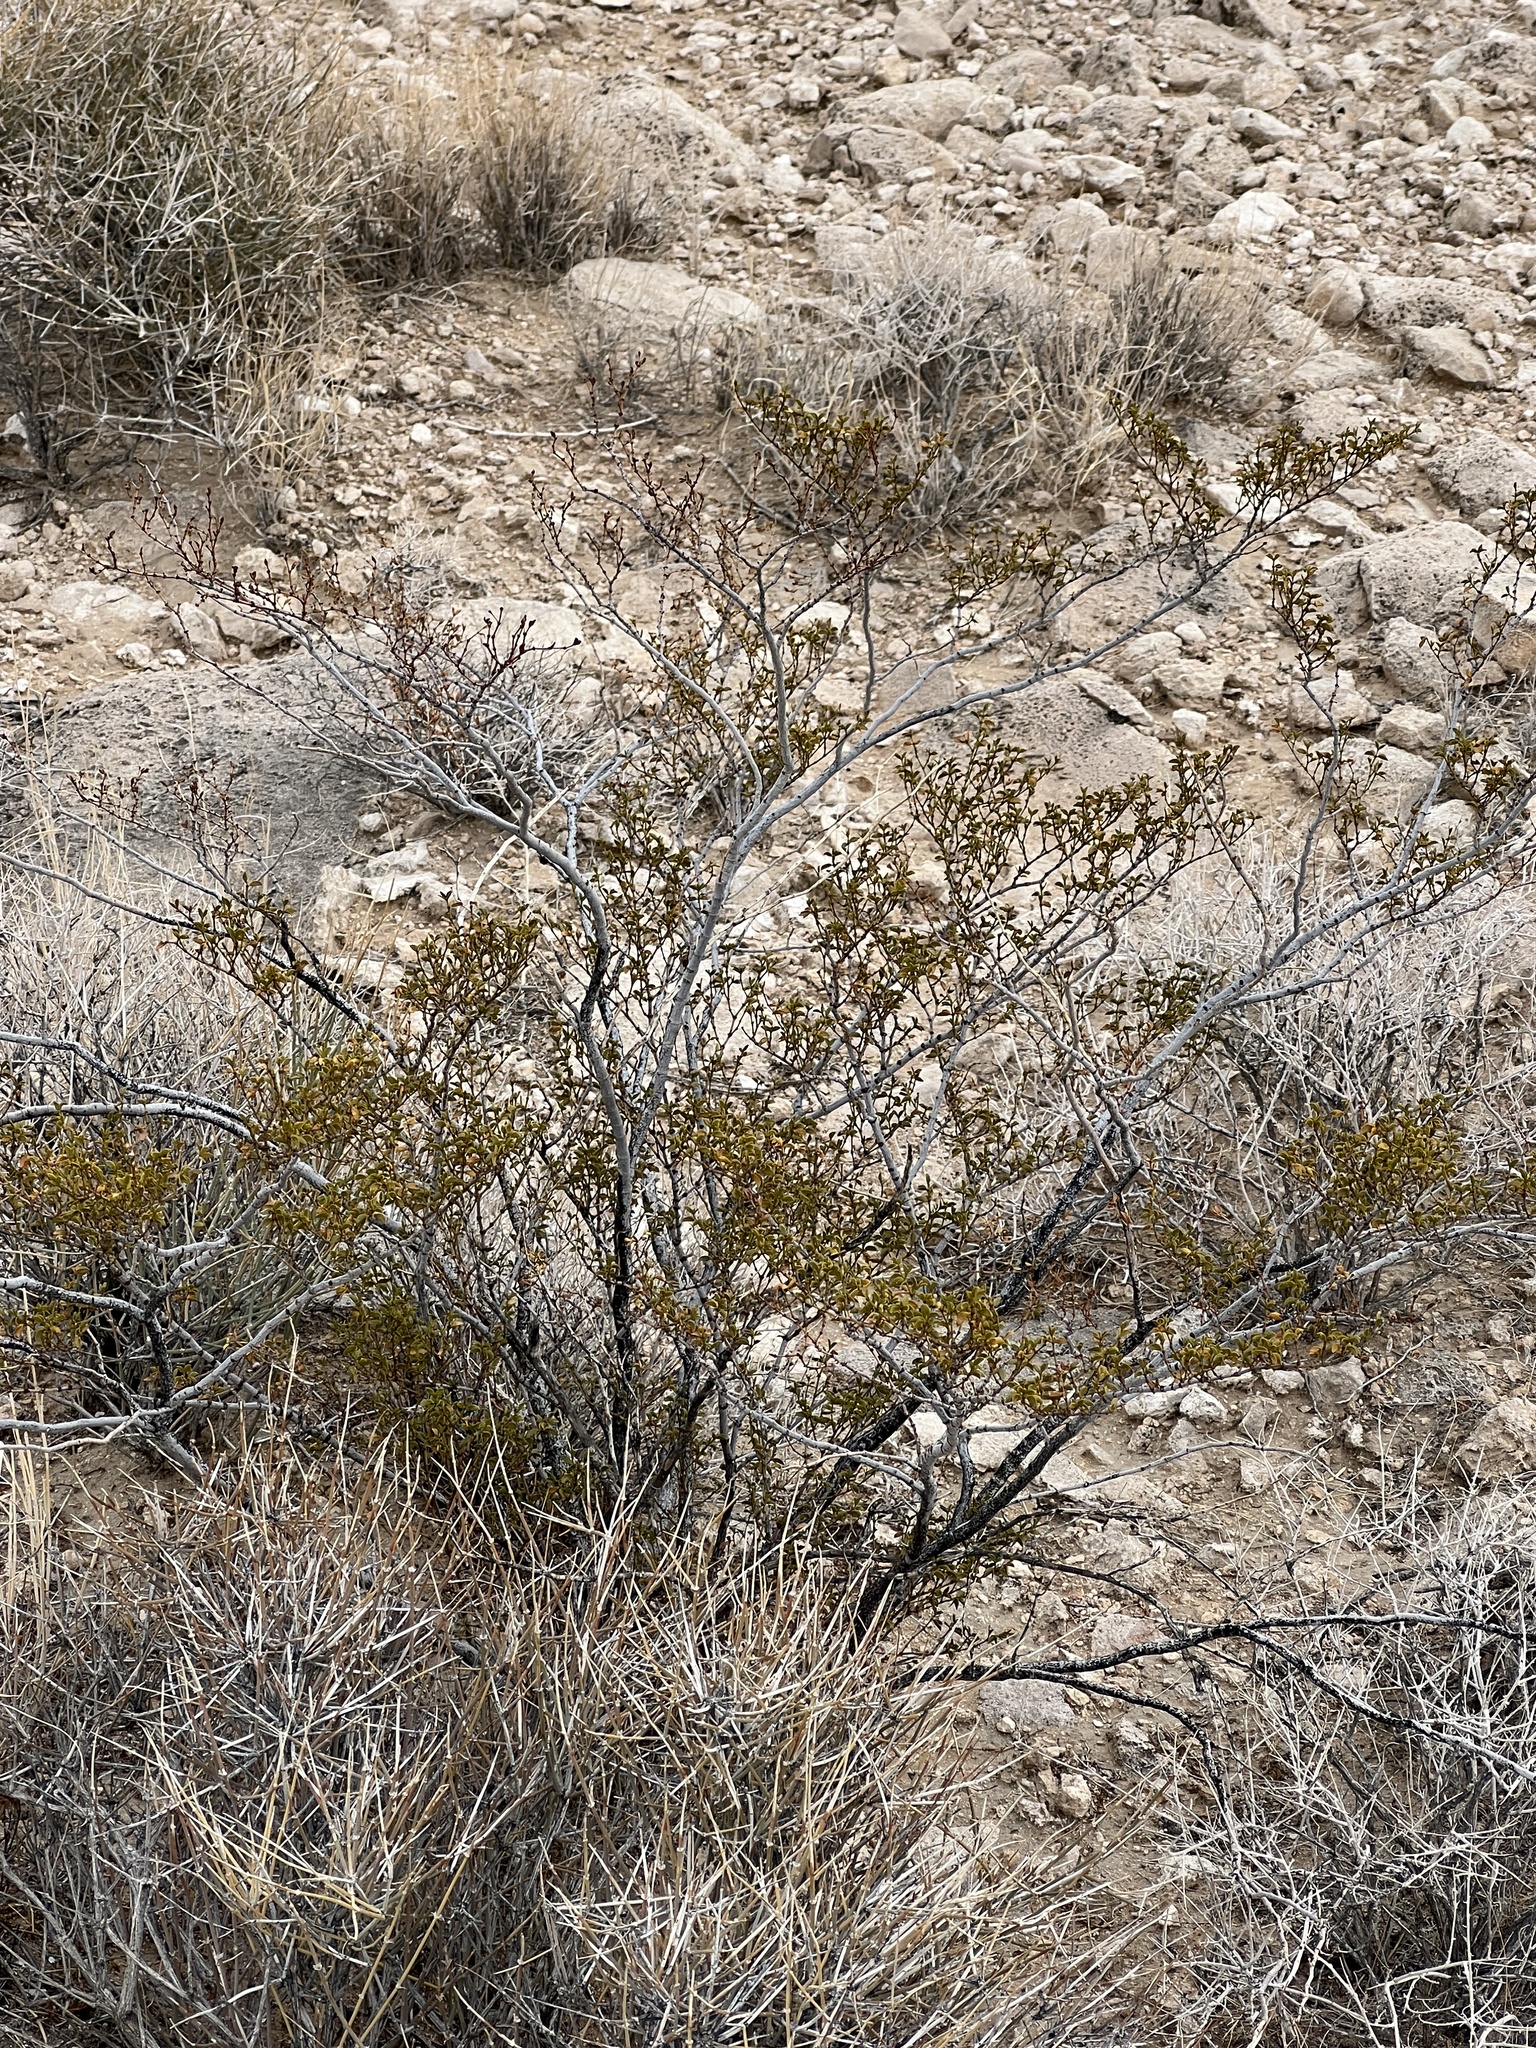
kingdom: Plantae
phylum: Tracheophyta
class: Magnoliopsida
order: Zygophyllales
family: Zygophyllaceae
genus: Larrea
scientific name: Larrea tridentata
